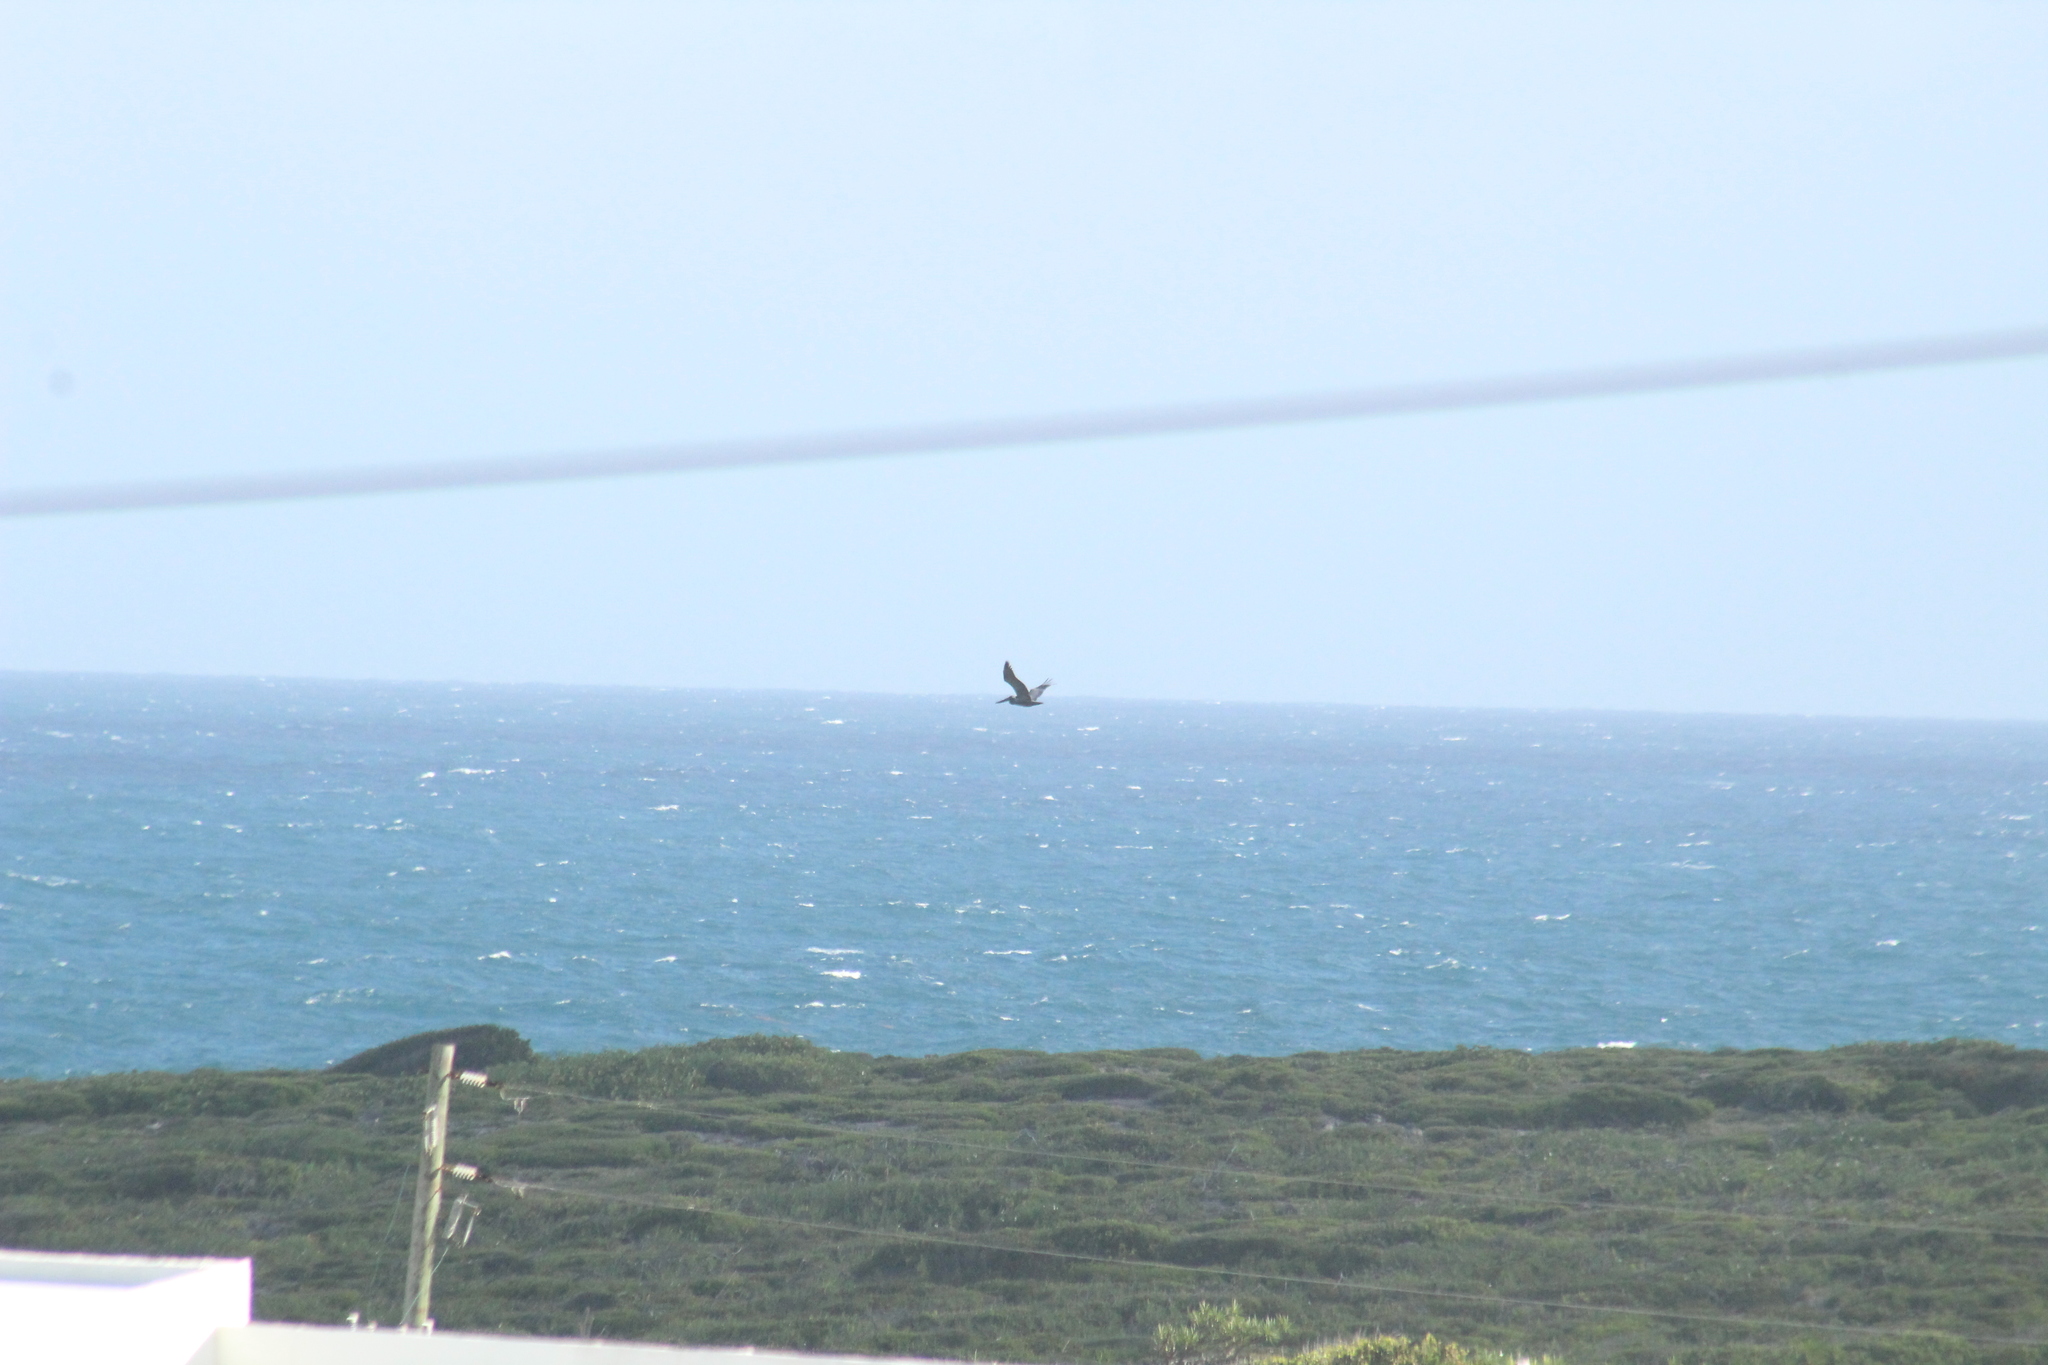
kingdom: Animalia
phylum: Chordata
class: Aves
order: Pelecaniformes
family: Pelecanidae
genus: Pelecanus
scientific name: Pelecanus occidentalis
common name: Brown pelican
